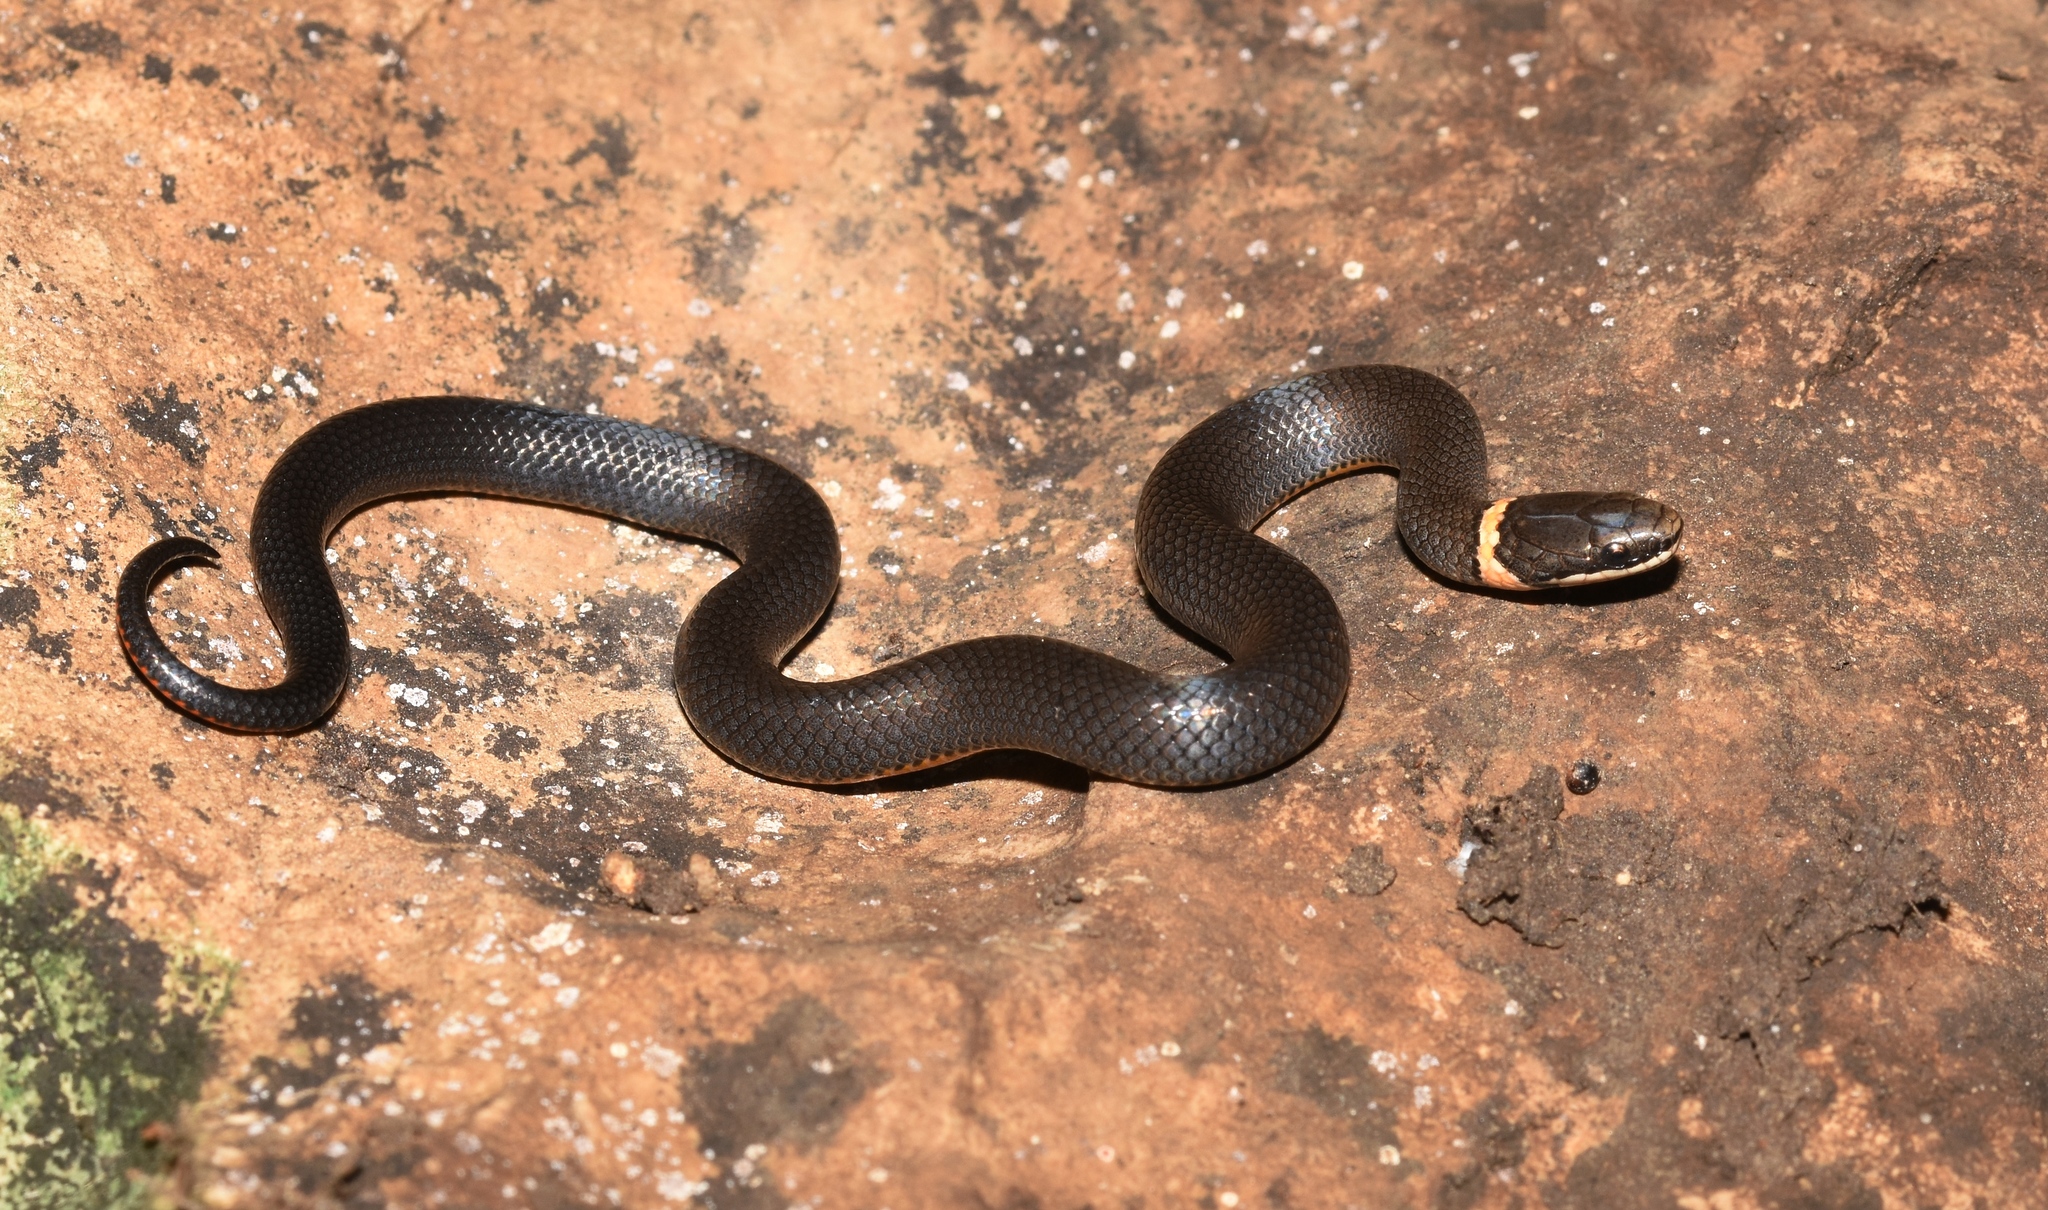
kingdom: Animalia
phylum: Chordata
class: Squamata
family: Colubridae
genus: Diadophis
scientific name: Diadophis punctatus
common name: Ringneck snake
